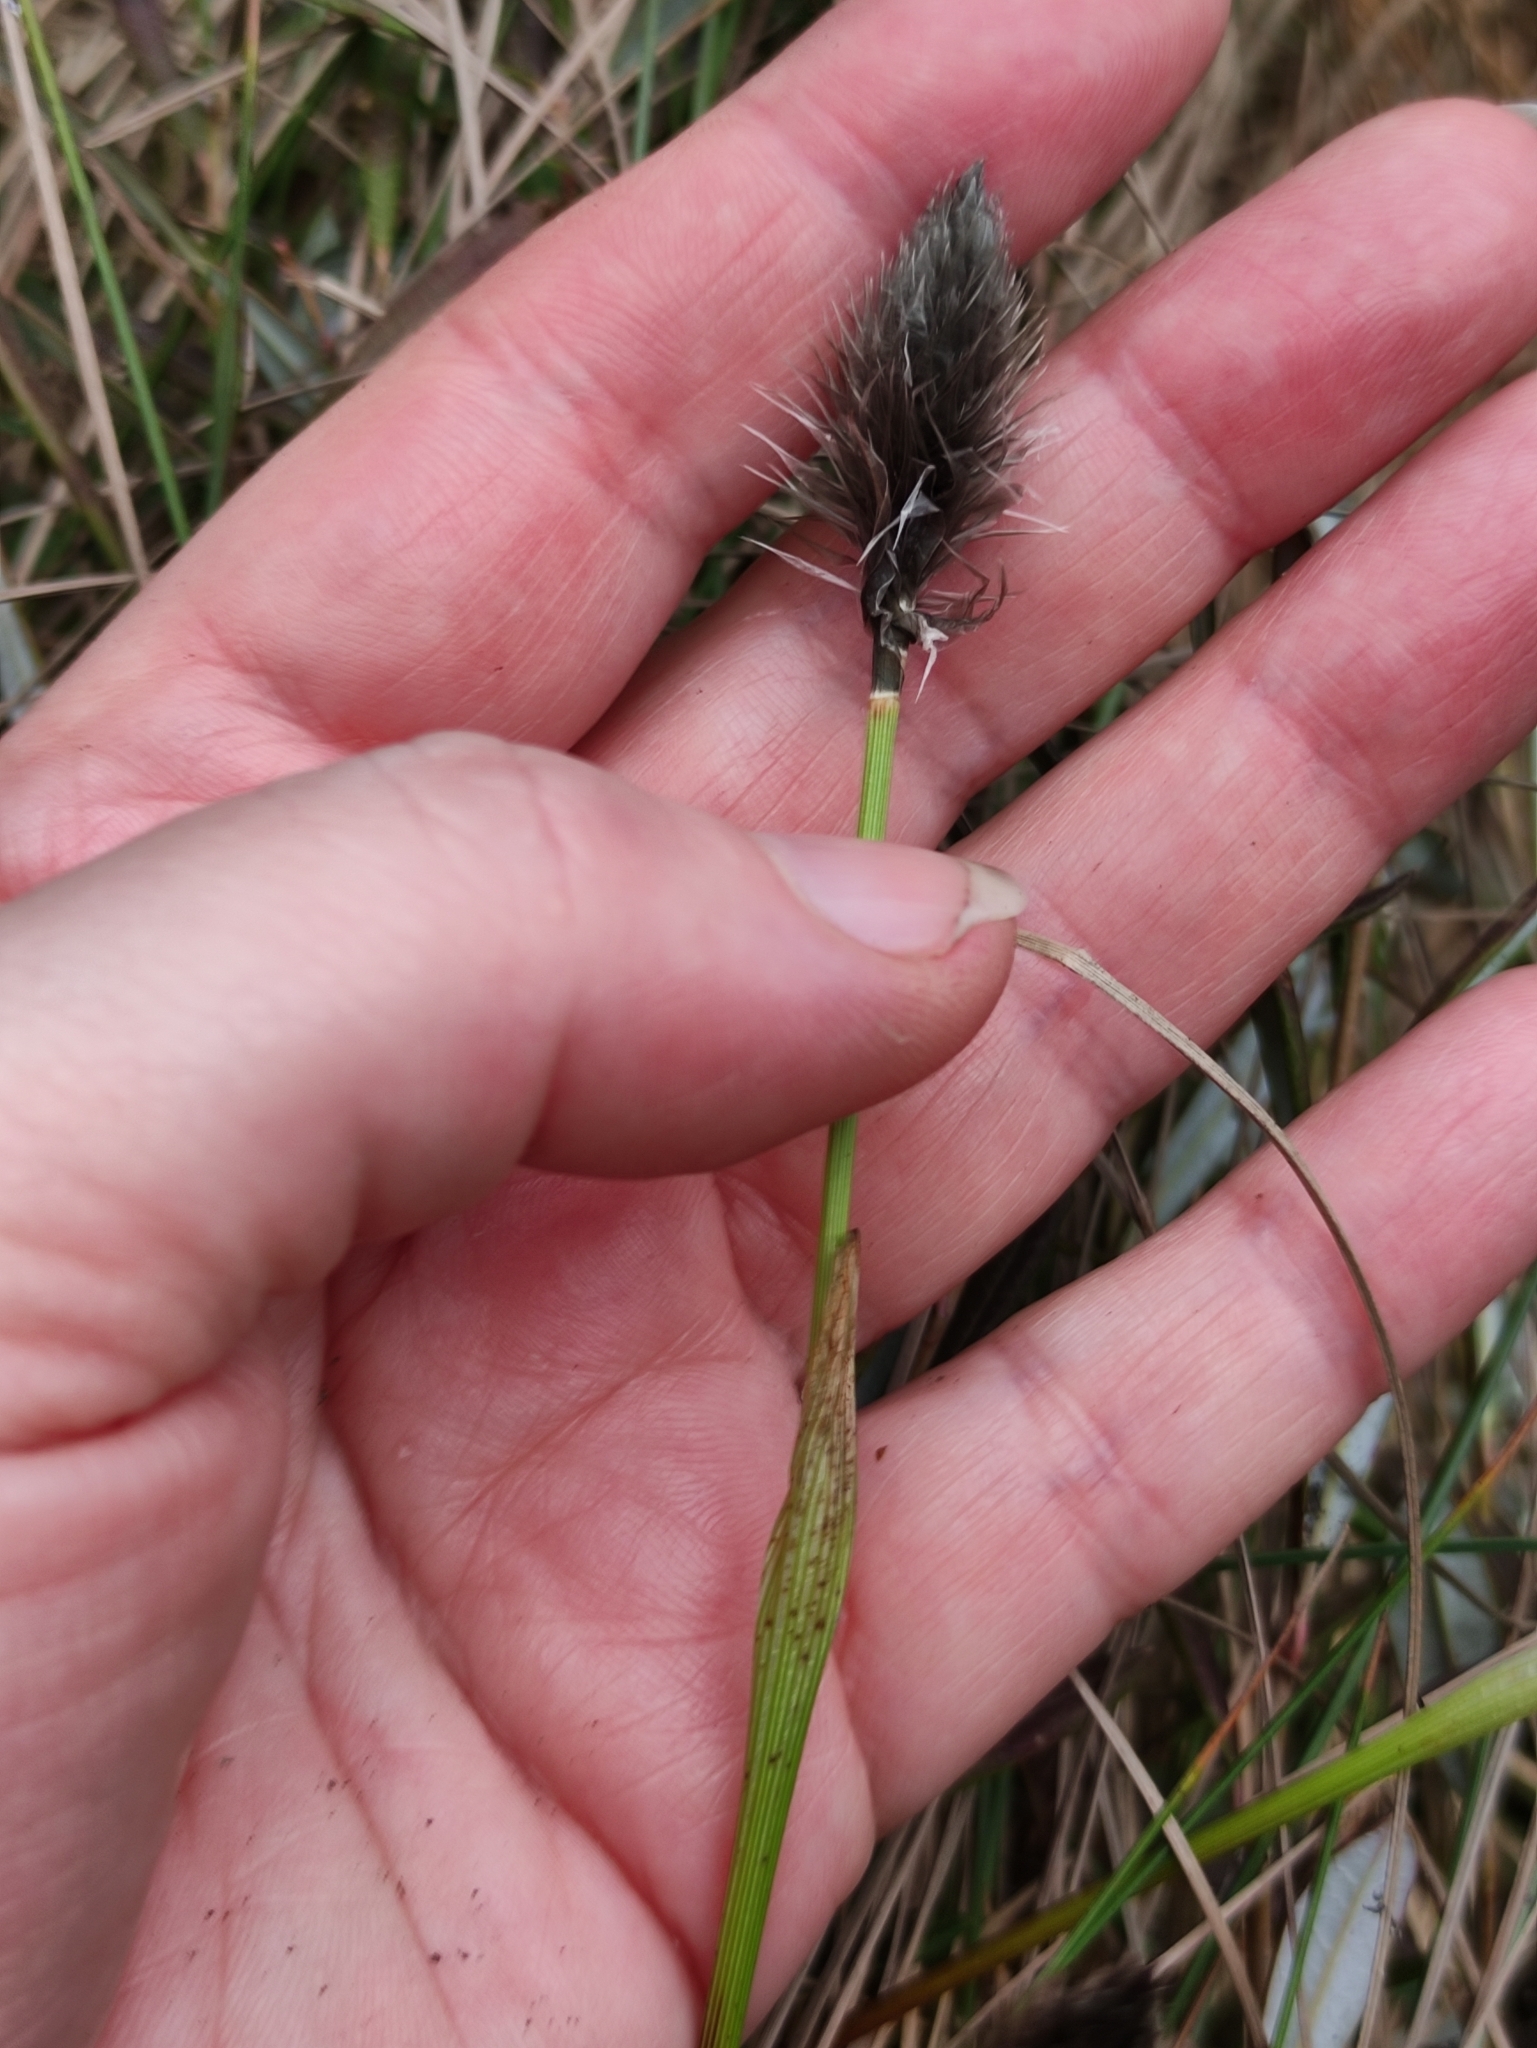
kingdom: Plantae
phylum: Tracheophyta
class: Liliopsida
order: Poales
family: Cyperaceae
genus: Eriophorum
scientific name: Eriophorum vaginatum
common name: Hare's-tail cottongrass
